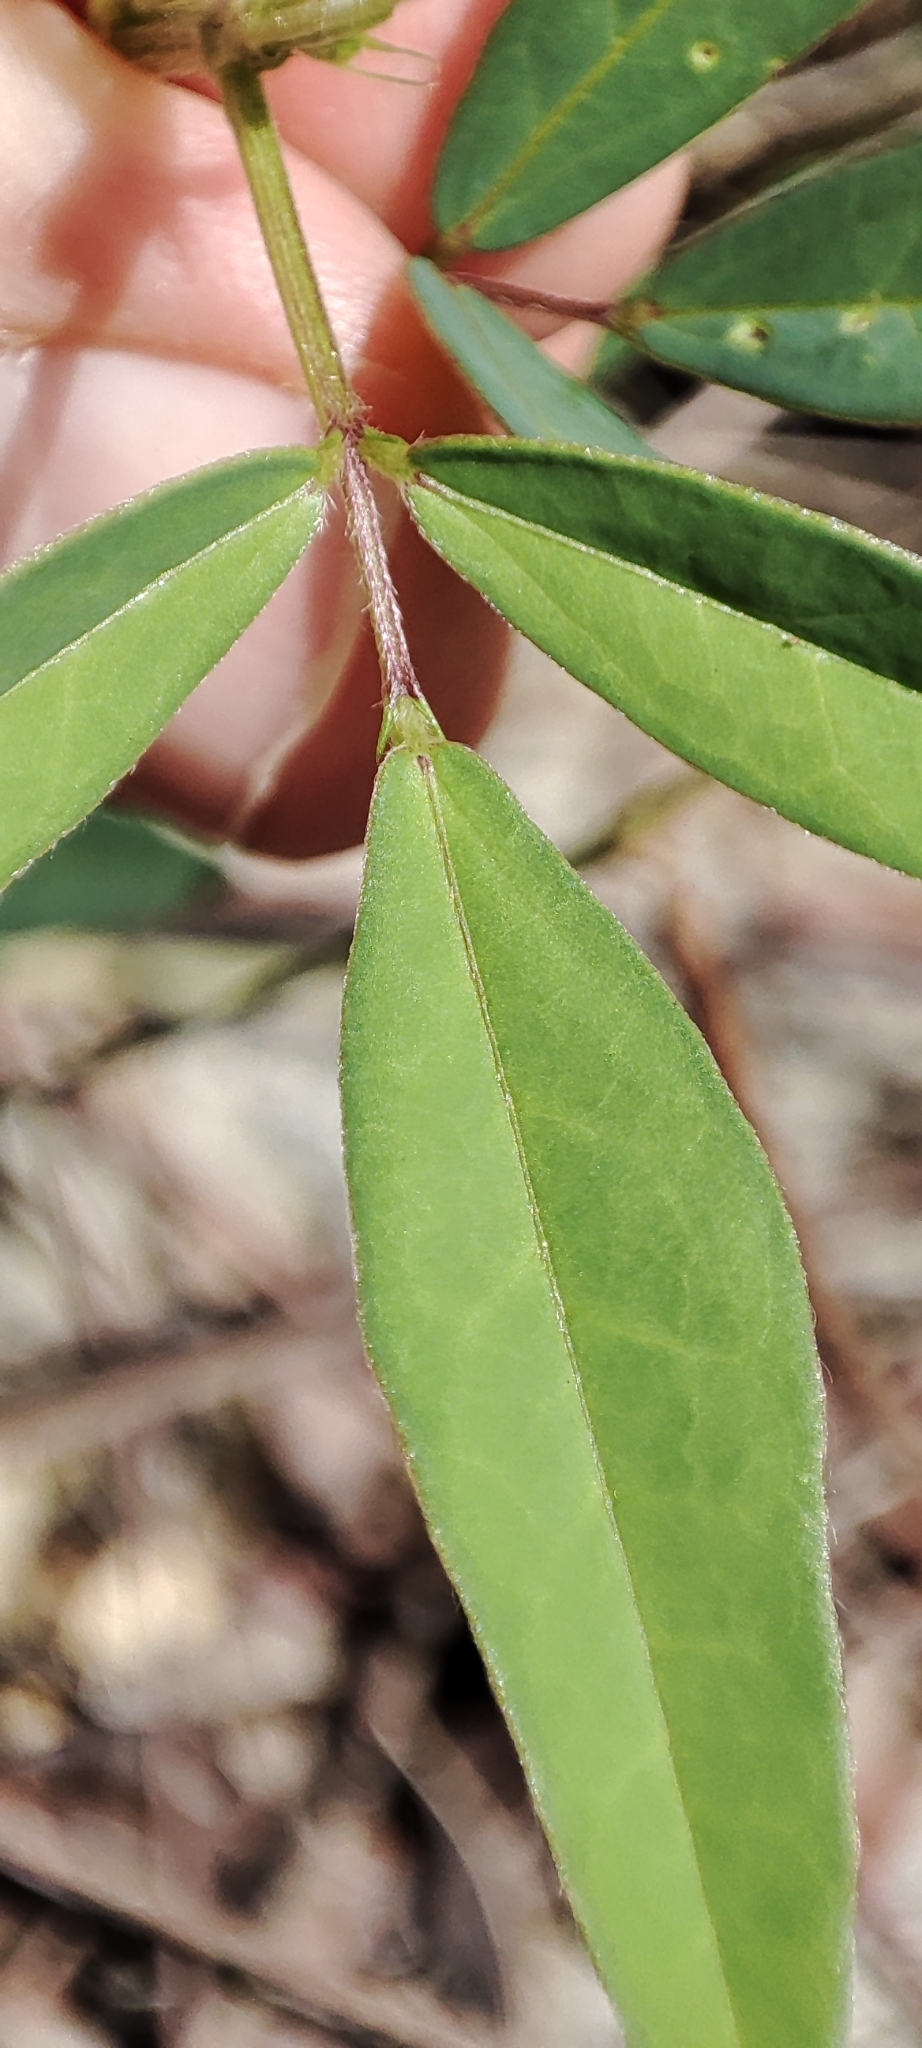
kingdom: Plantae
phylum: Tracheophyta
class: Magnoliopsida
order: Fabales
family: Fabaceae
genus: Macroptilium
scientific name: Macroptilium lathyroides
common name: Wild bushbean
